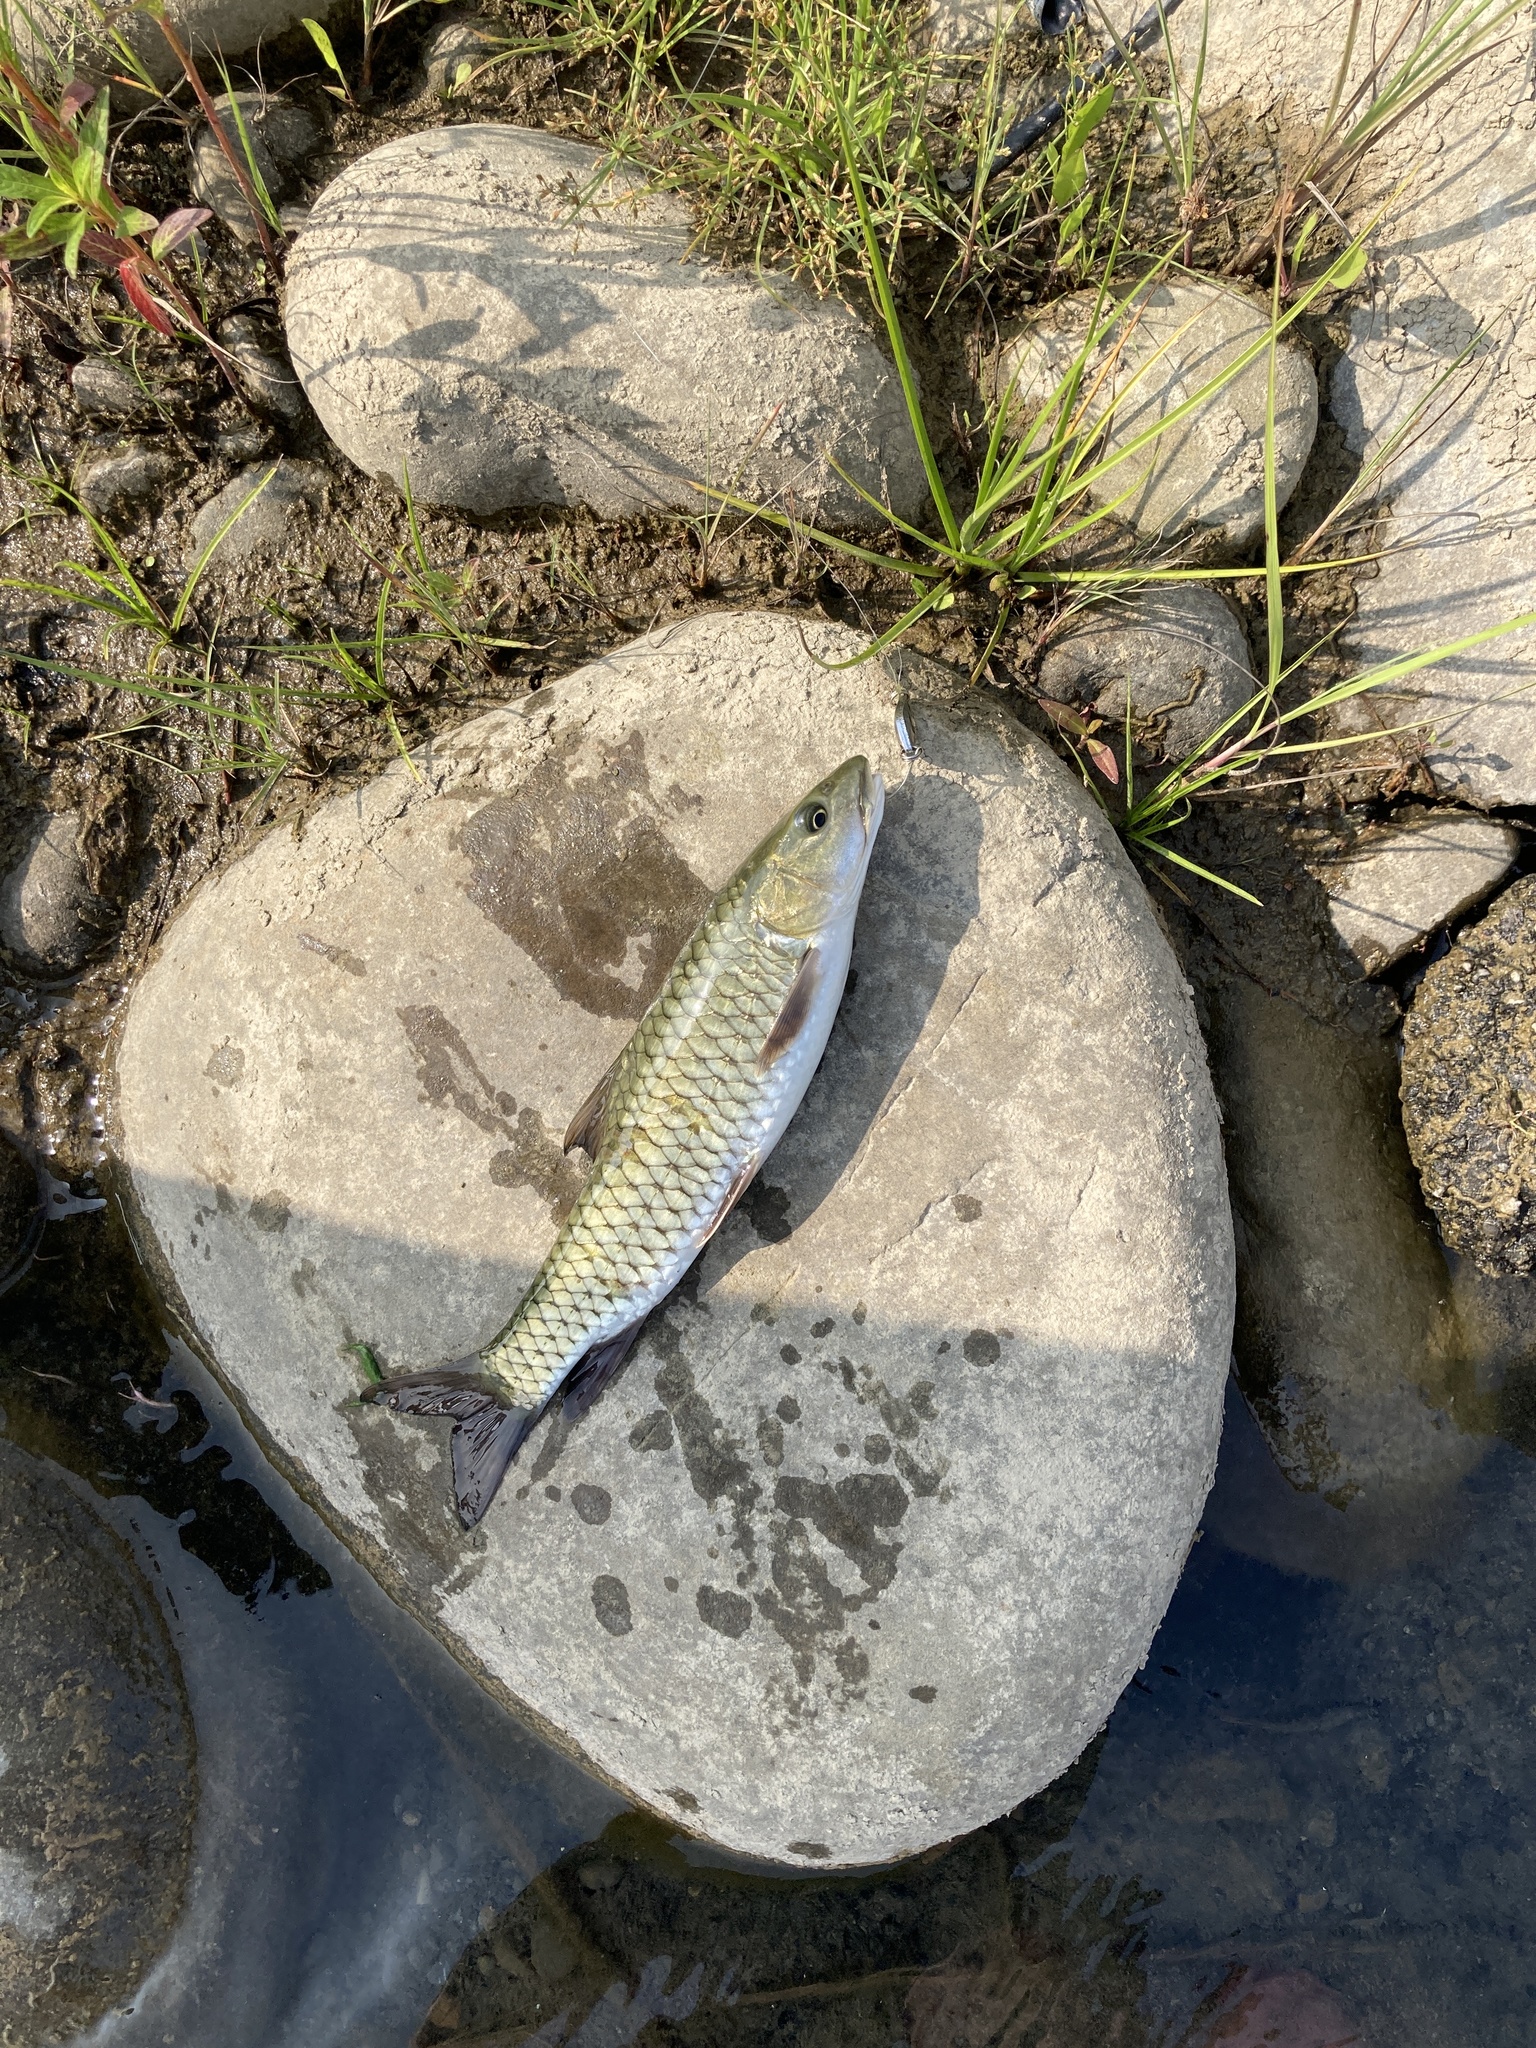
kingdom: Animalia
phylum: Chordata
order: Cypriniformes
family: Cyprinidae
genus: Spinibarbus
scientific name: Spinibarbus hollandi
